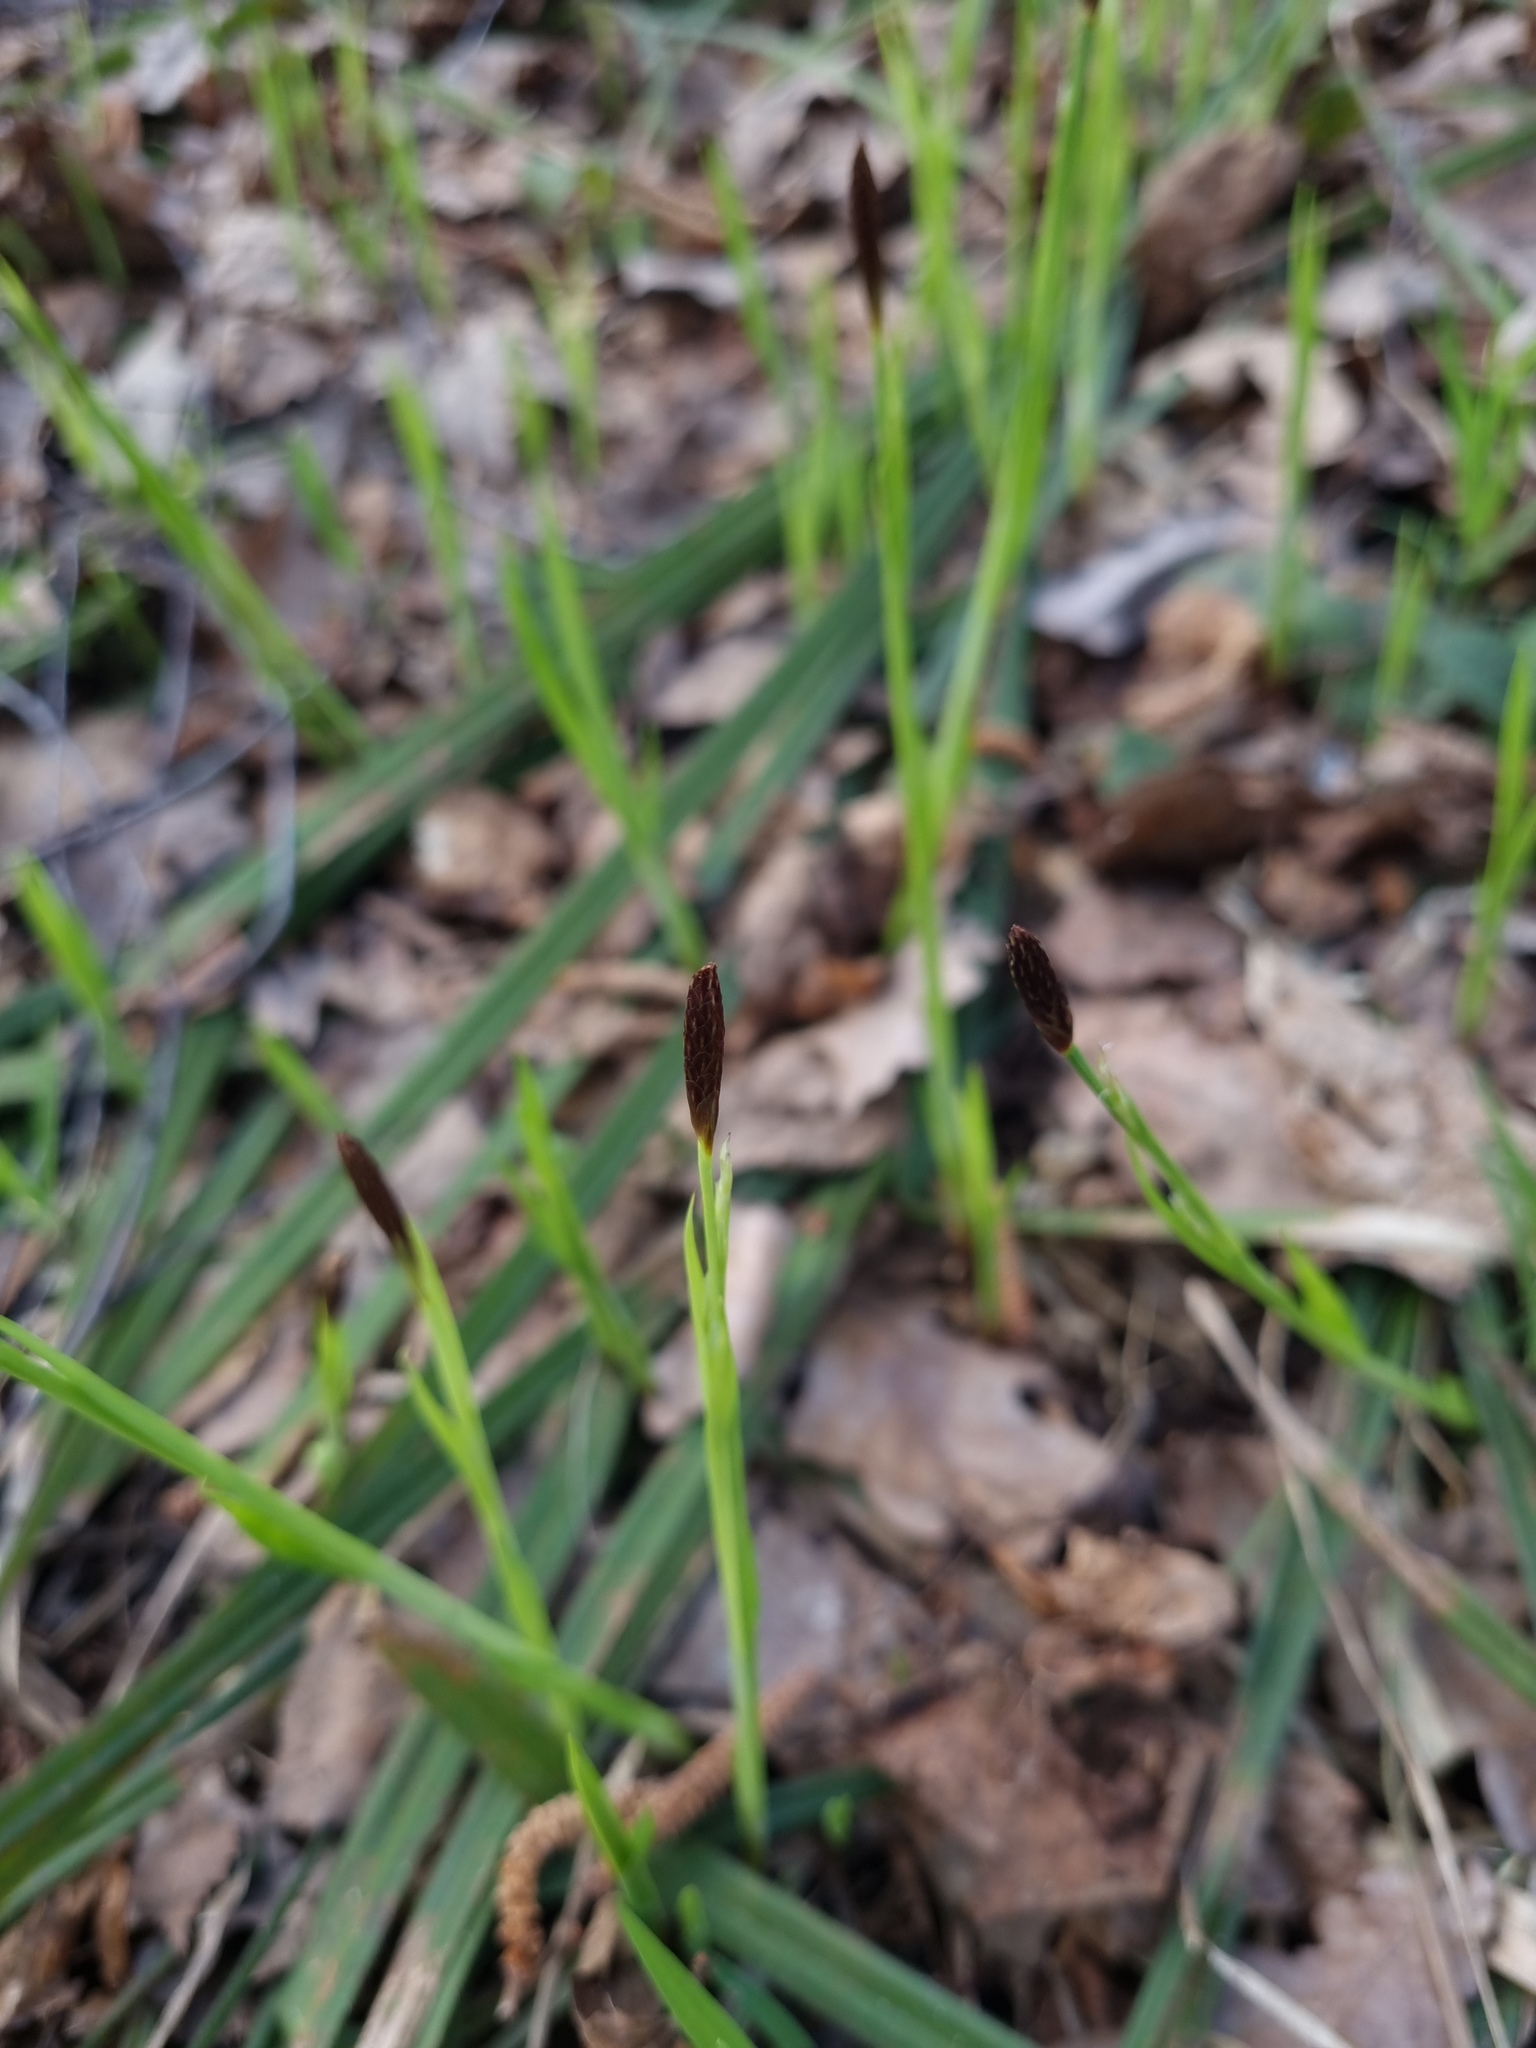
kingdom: Plantae
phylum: Tracheophyta
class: Liliopsida
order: Poales
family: Cyperaceae
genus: Carex
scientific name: Carex pilosa
